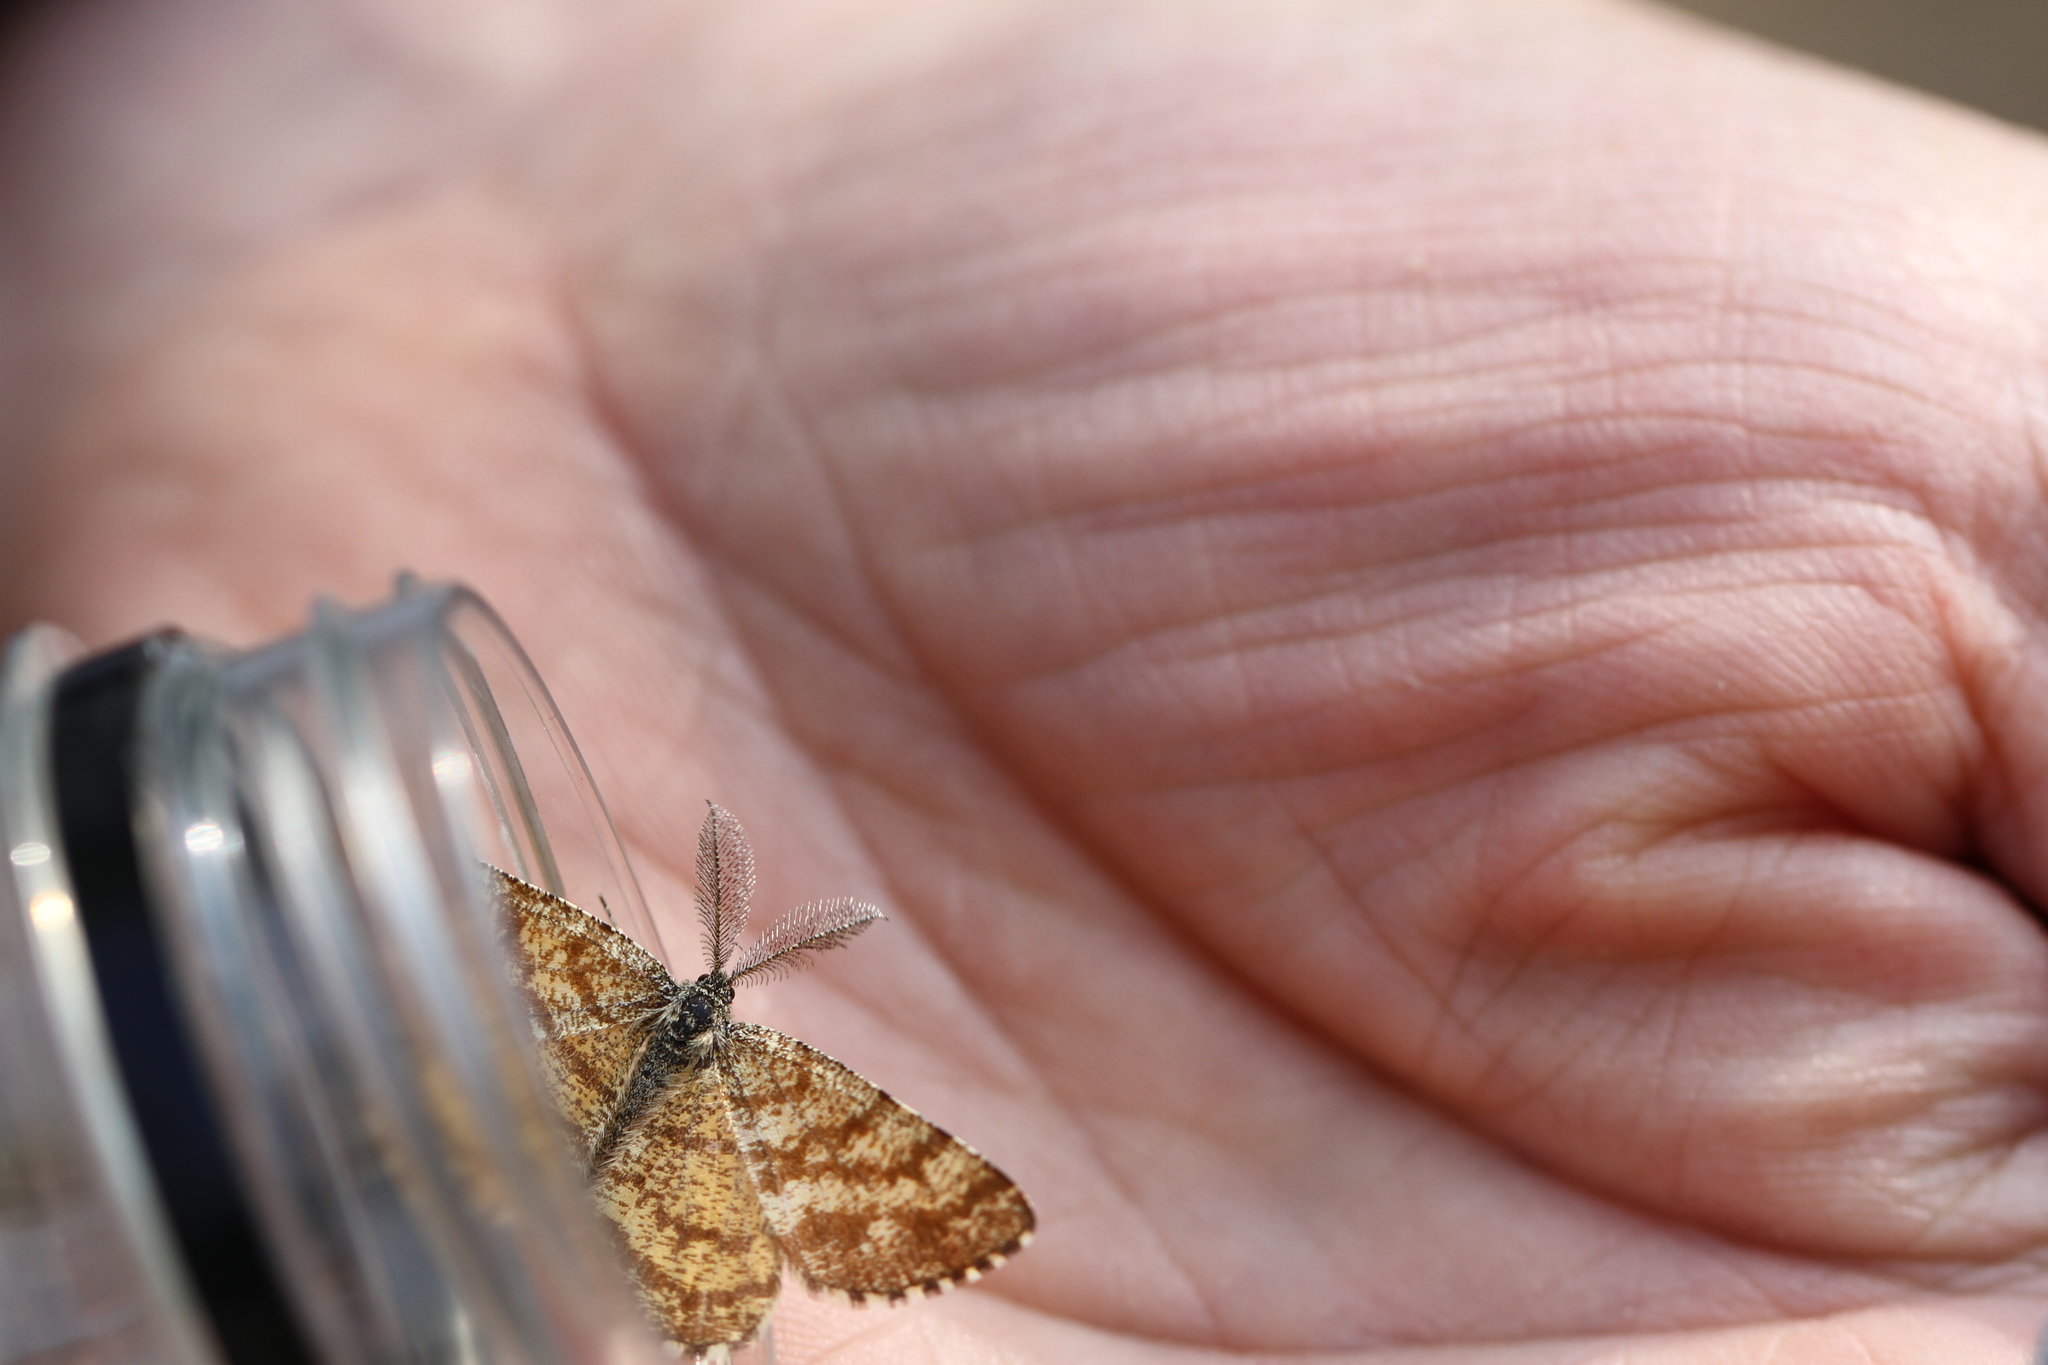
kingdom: Animalia
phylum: Arthropoda
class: Insecta
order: Lepidoptera
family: Geometridae
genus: Ematurga
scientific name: Ematurga atomaria
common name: Common heath
